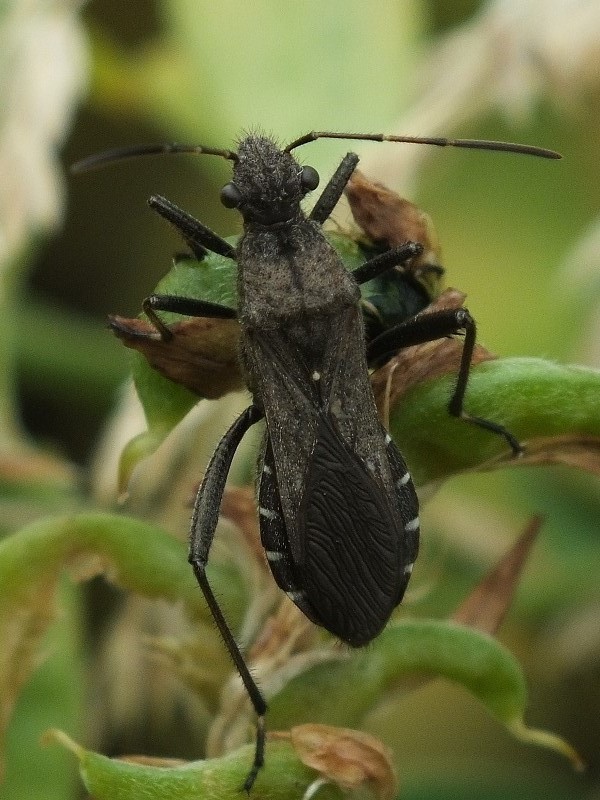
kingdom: Animalia
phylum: Arthropoda
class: Insecta
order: Hemiptera
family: Alydidae
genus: Alydus
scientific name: Alydus calcaratus
